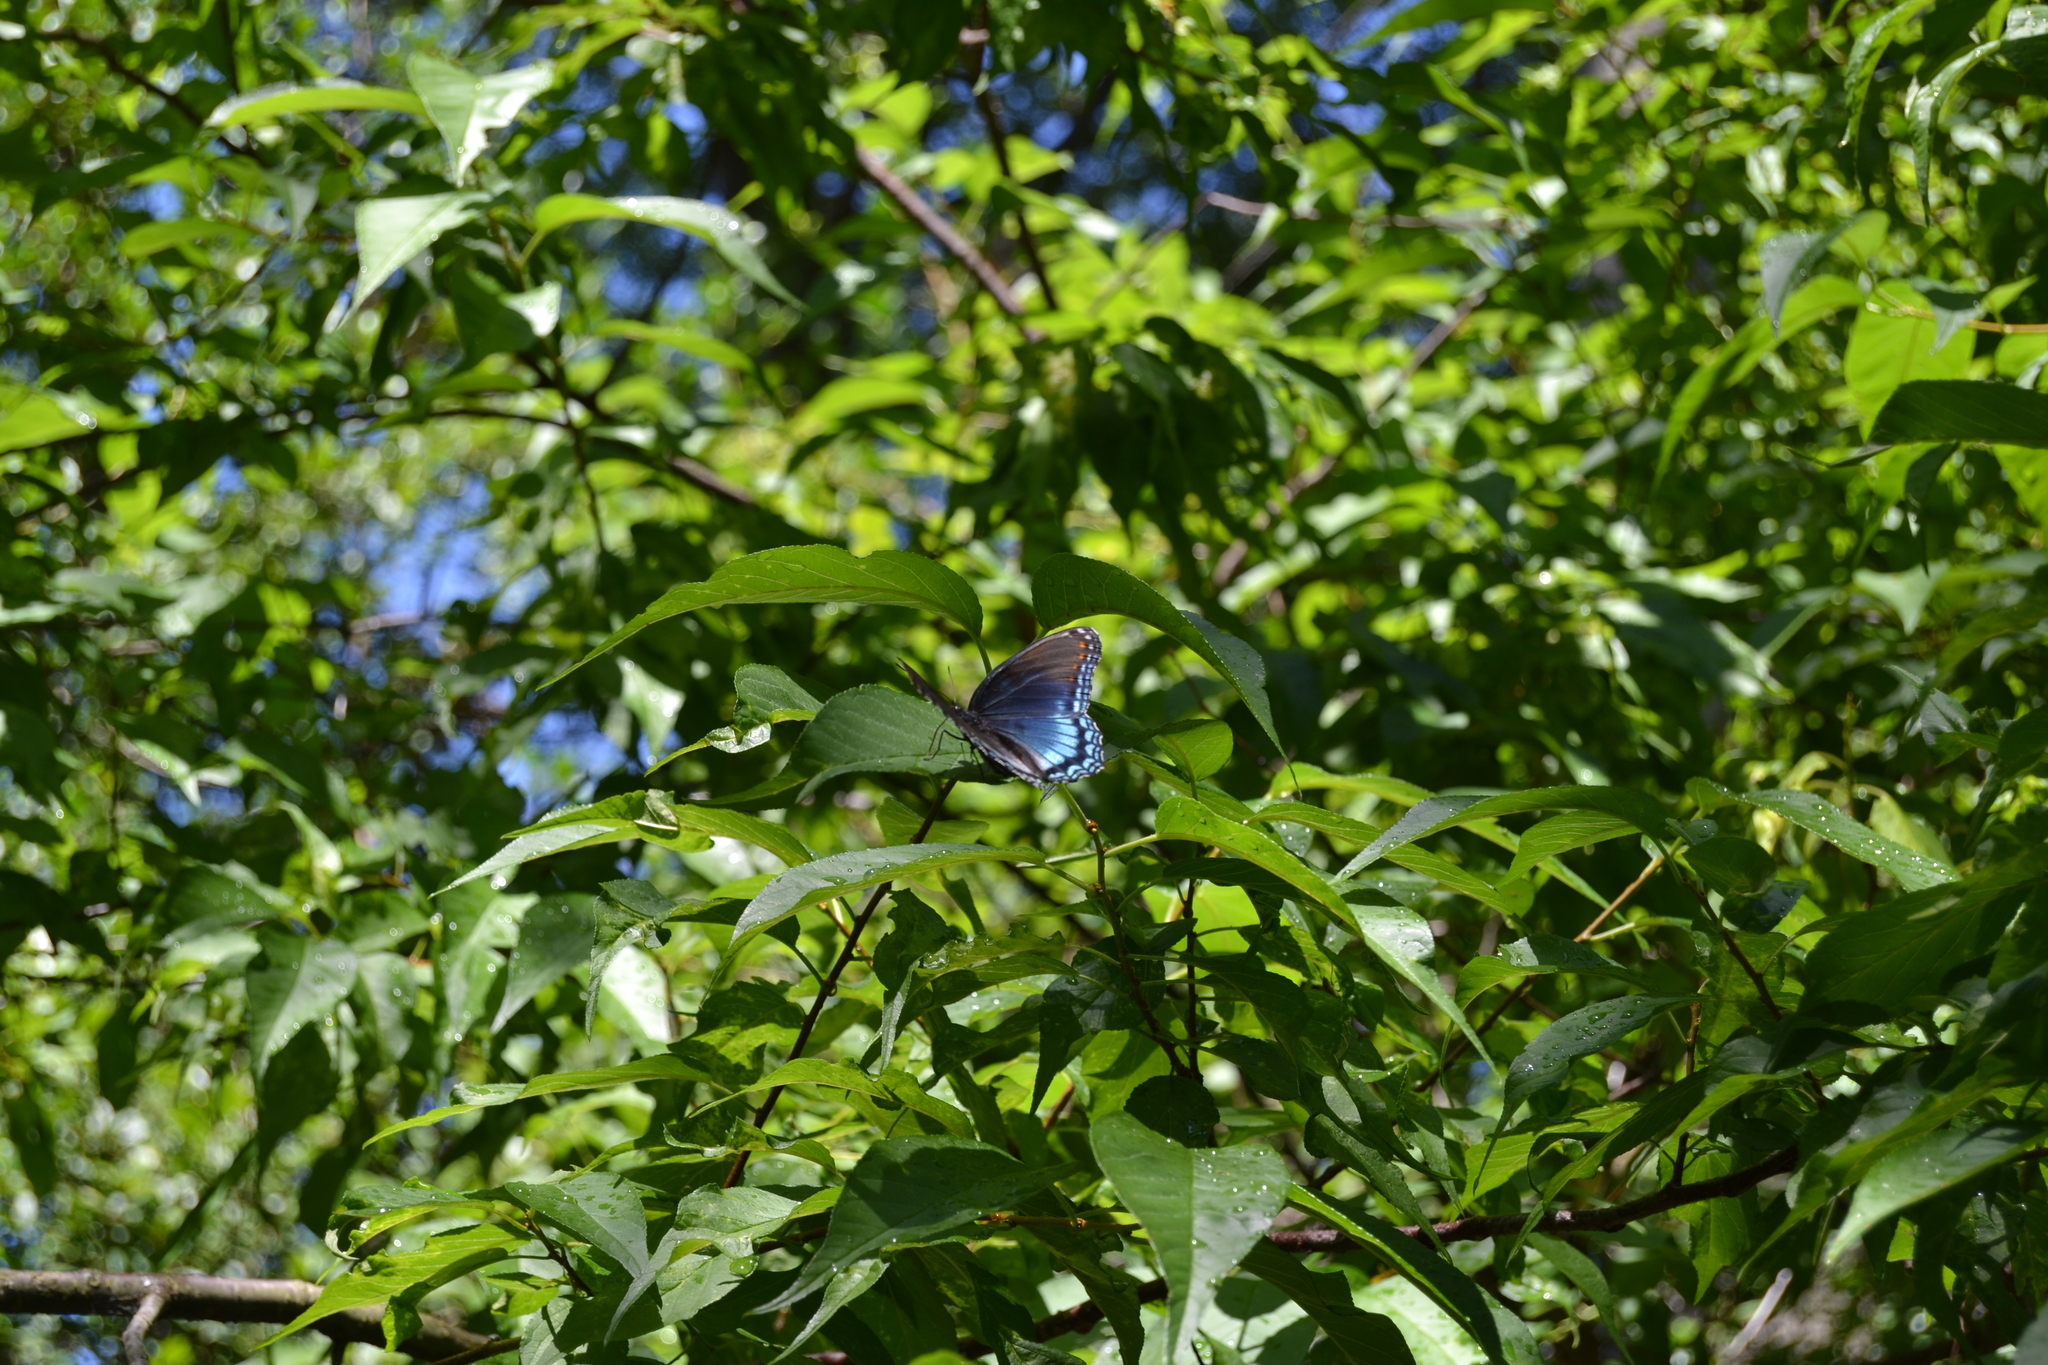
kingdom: Animalia
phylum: Arthropoda
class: Insecta
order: Lepidoptera
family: Nymphalidae
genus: Limenitis
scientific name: Limenitis astyanax
